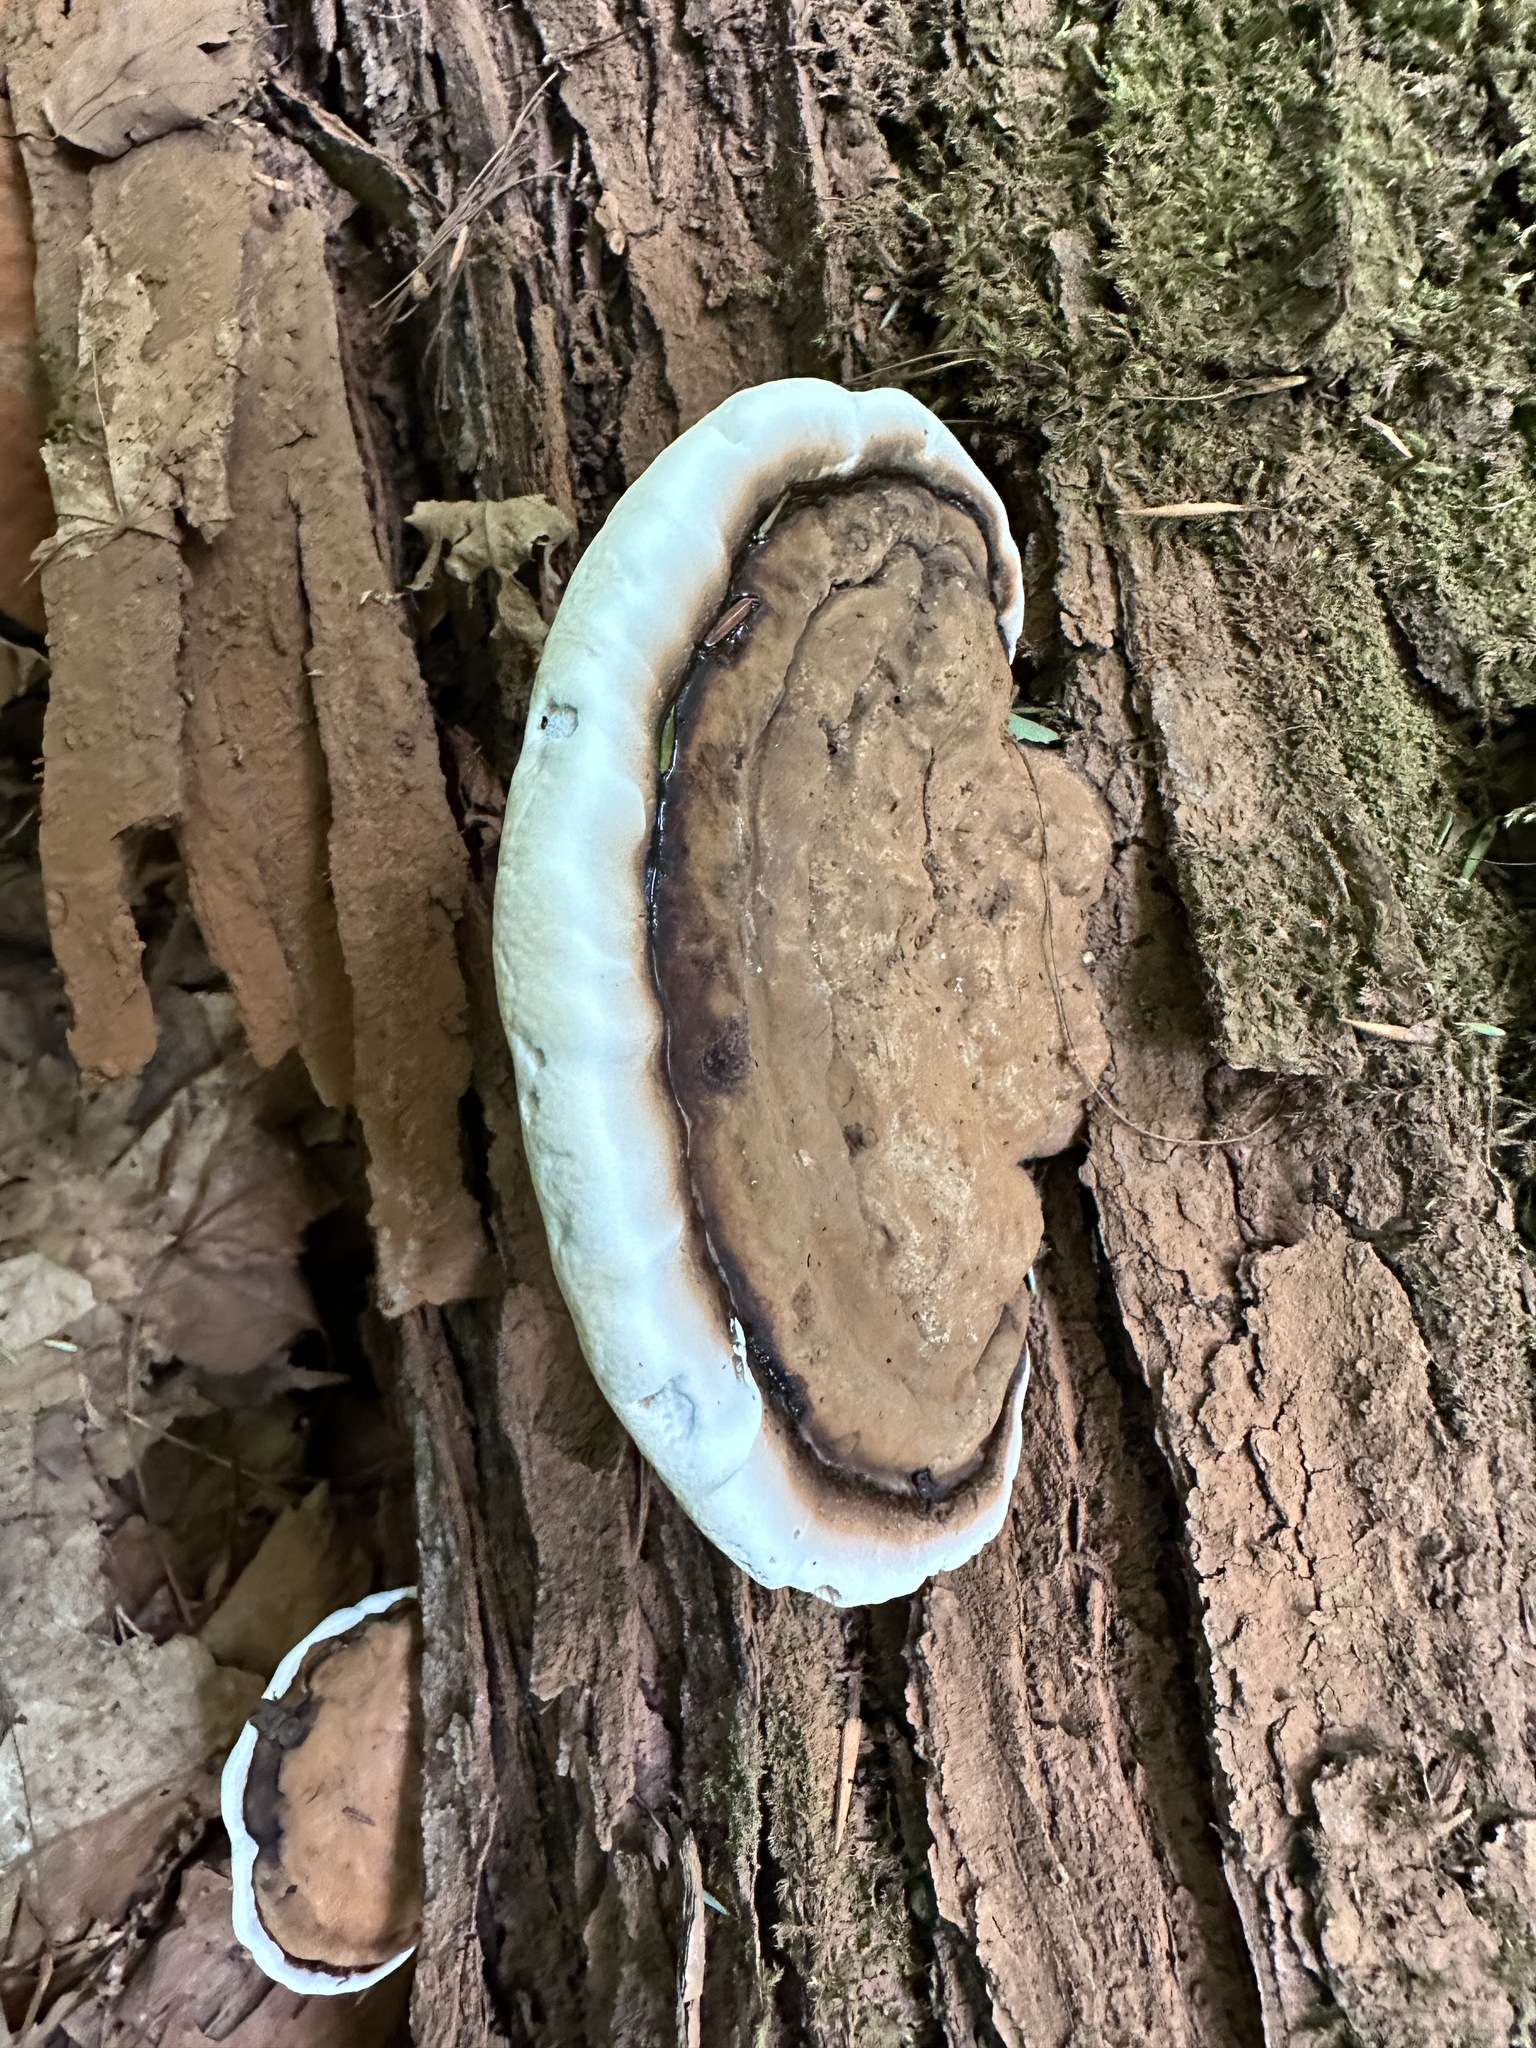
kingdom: Fungi
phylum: Basidiomycota
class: Agaricomycetes
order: Polyporales
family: Polyporaceae
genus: Ganoderma
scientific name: Ganoderma applanatum
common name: Artist's bracket
